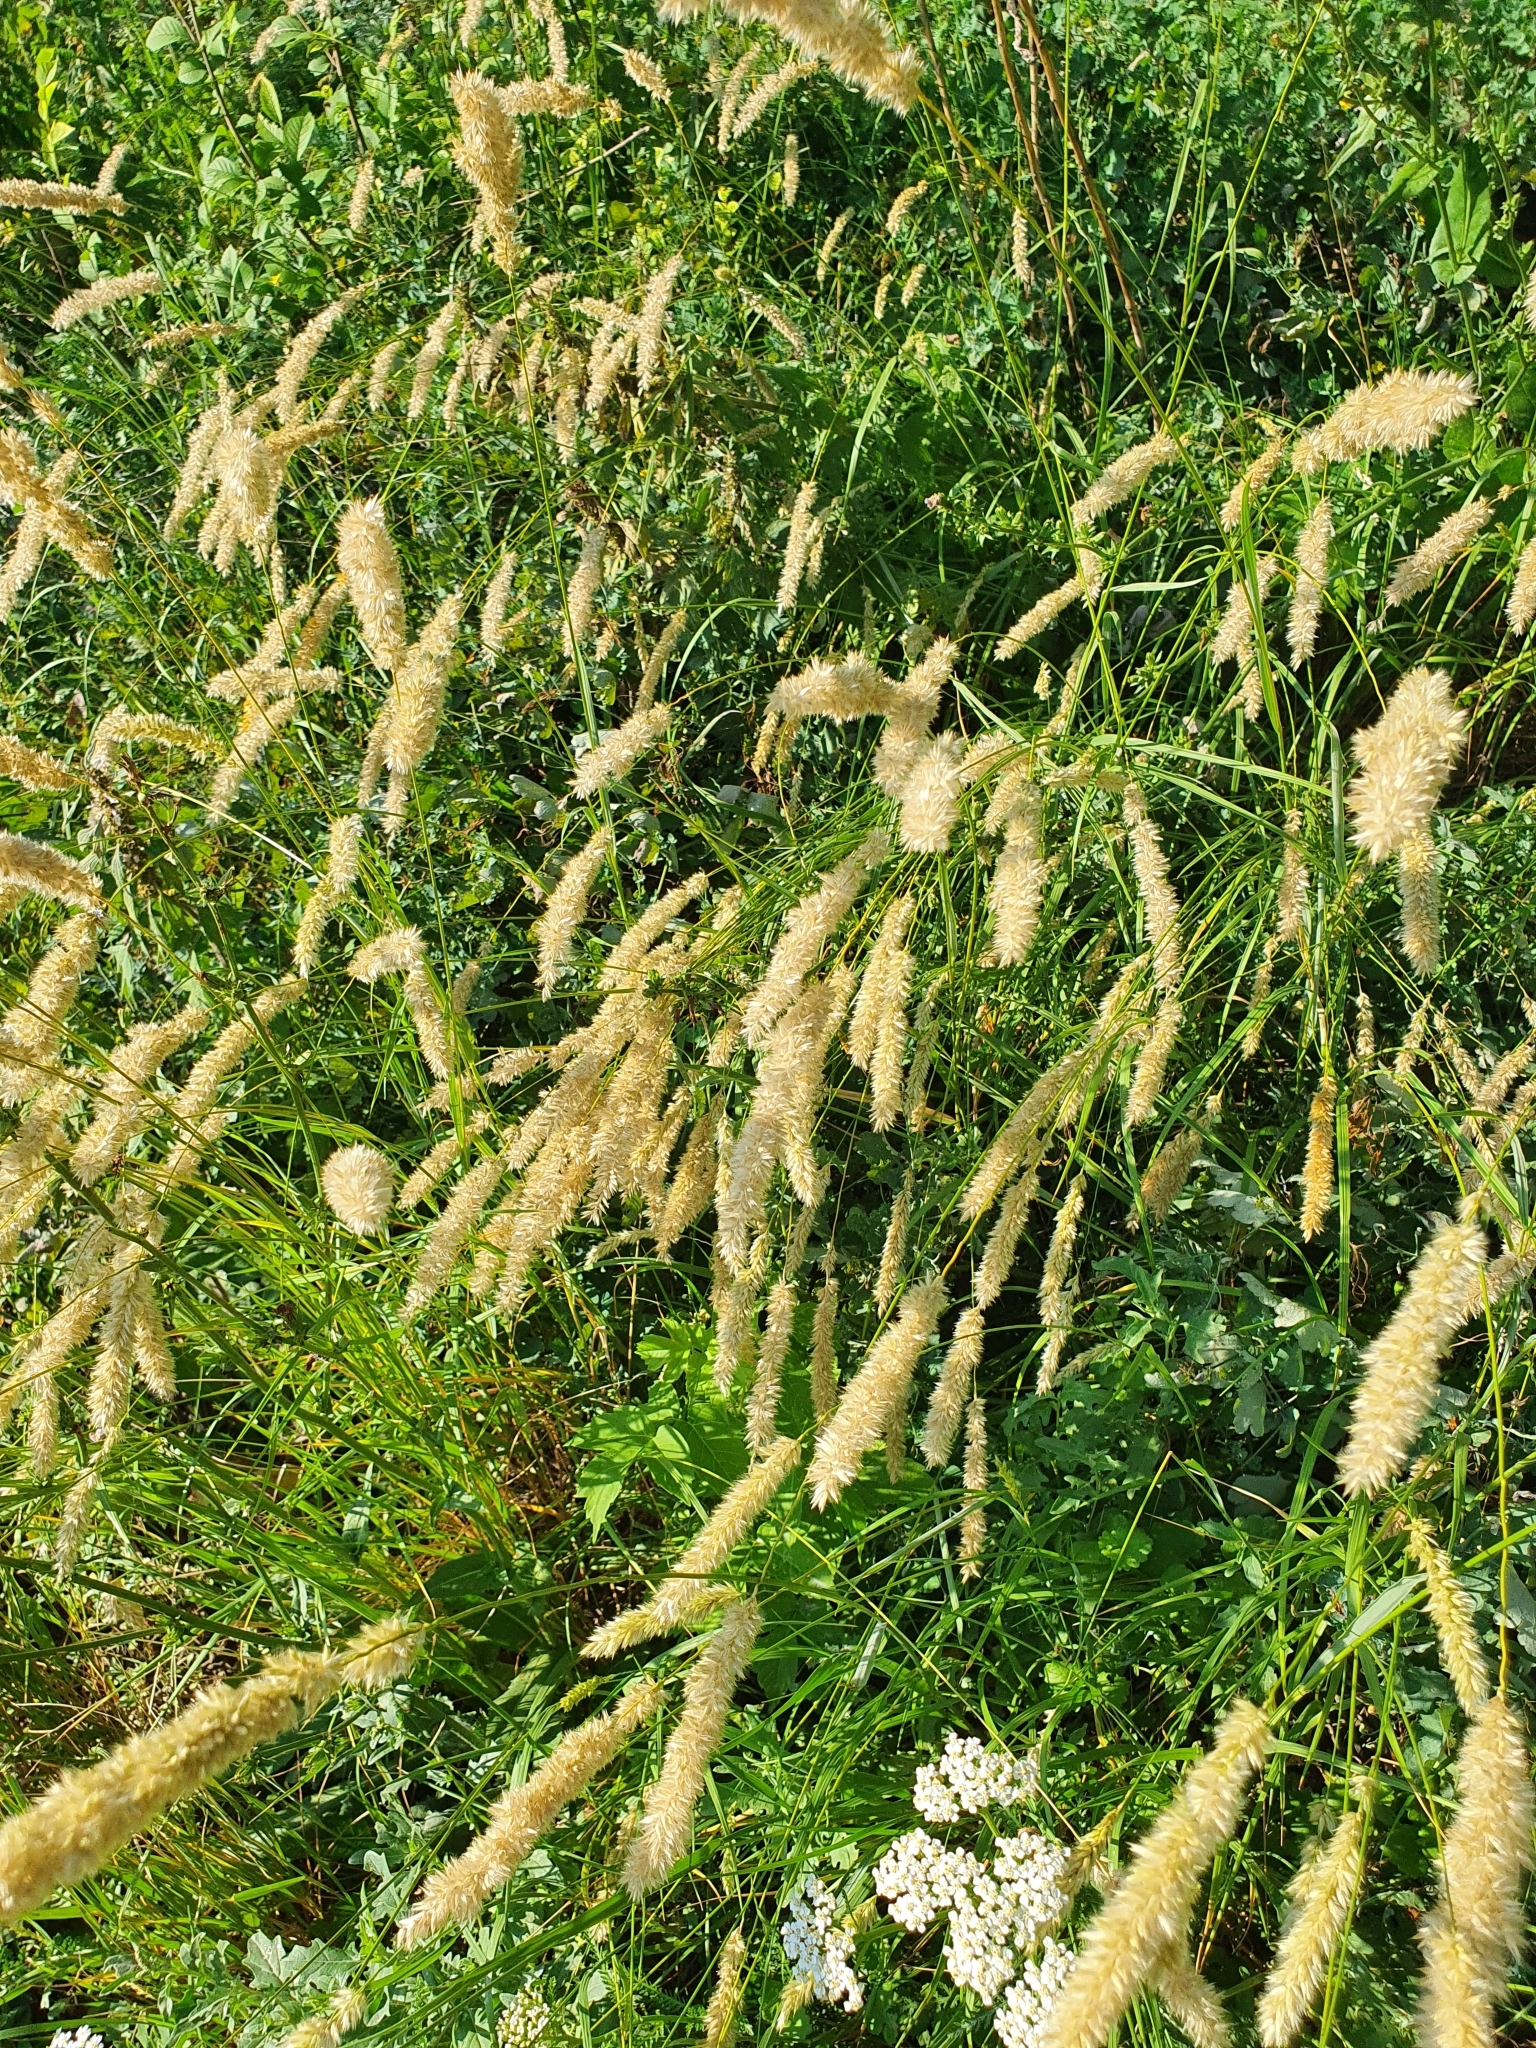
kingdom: Plantae
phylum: Tracheophyta
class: Liliopsida
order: Poales
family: Poaceae
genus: Melica
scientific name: Melica transsilvanica
